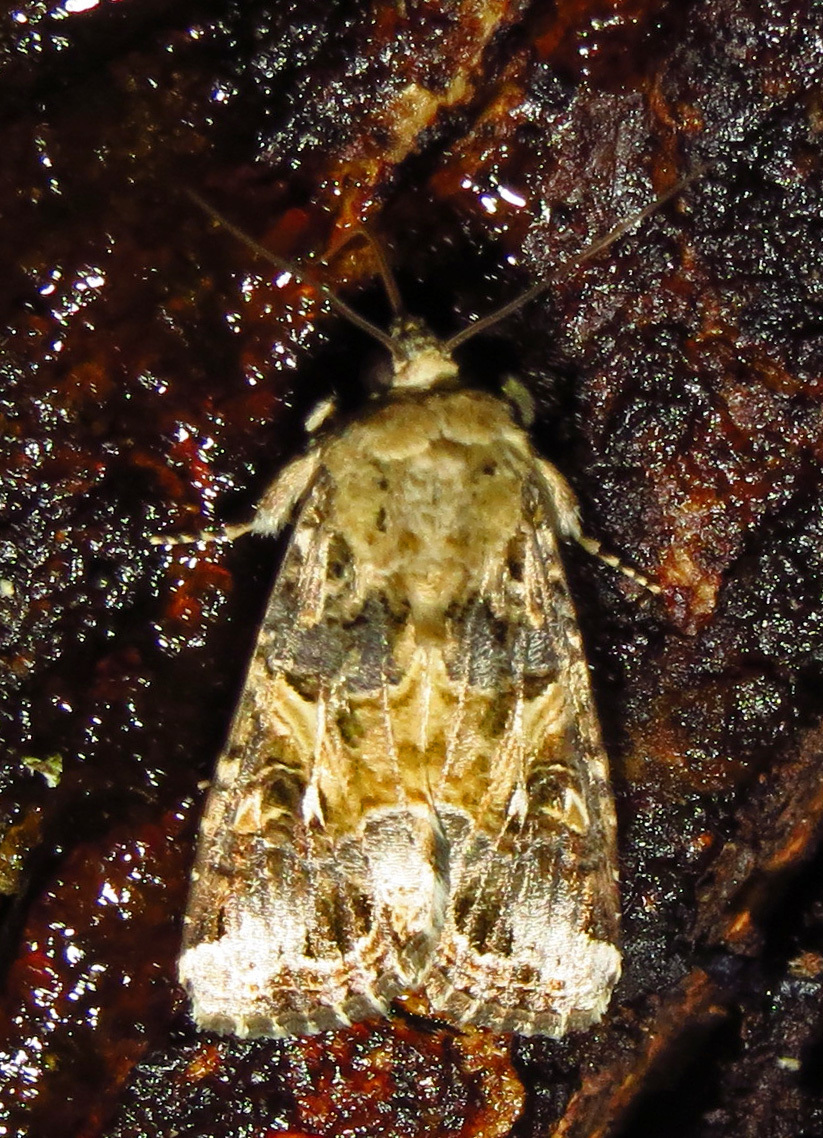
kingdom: Animalia
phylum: Arthropoda
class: Insecta
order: Lepidoptera
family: Noctuidae
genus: Spodoptera
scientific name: Spodoptera ornithogalli
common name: Yellow-striped armyworm
